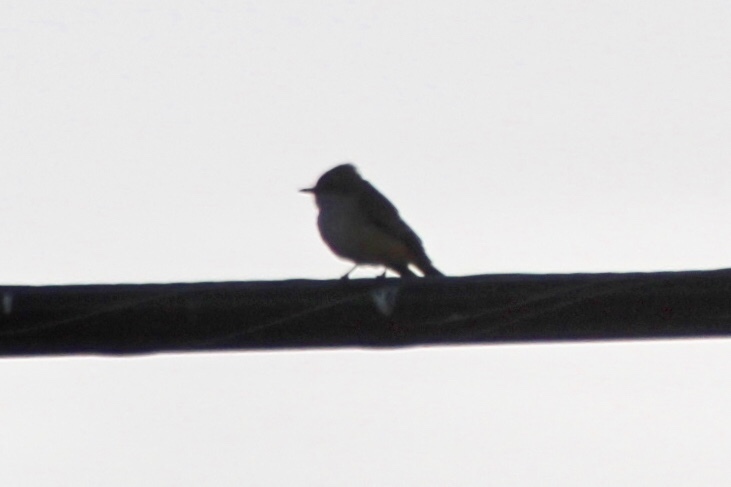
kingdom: Animalia
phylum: Chordata
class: Aves
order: Passeriformes
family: Tyrannidae
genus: Pyrocephalus
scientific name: Pyrocephalus rubinus
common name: Vermilion flycatcher
